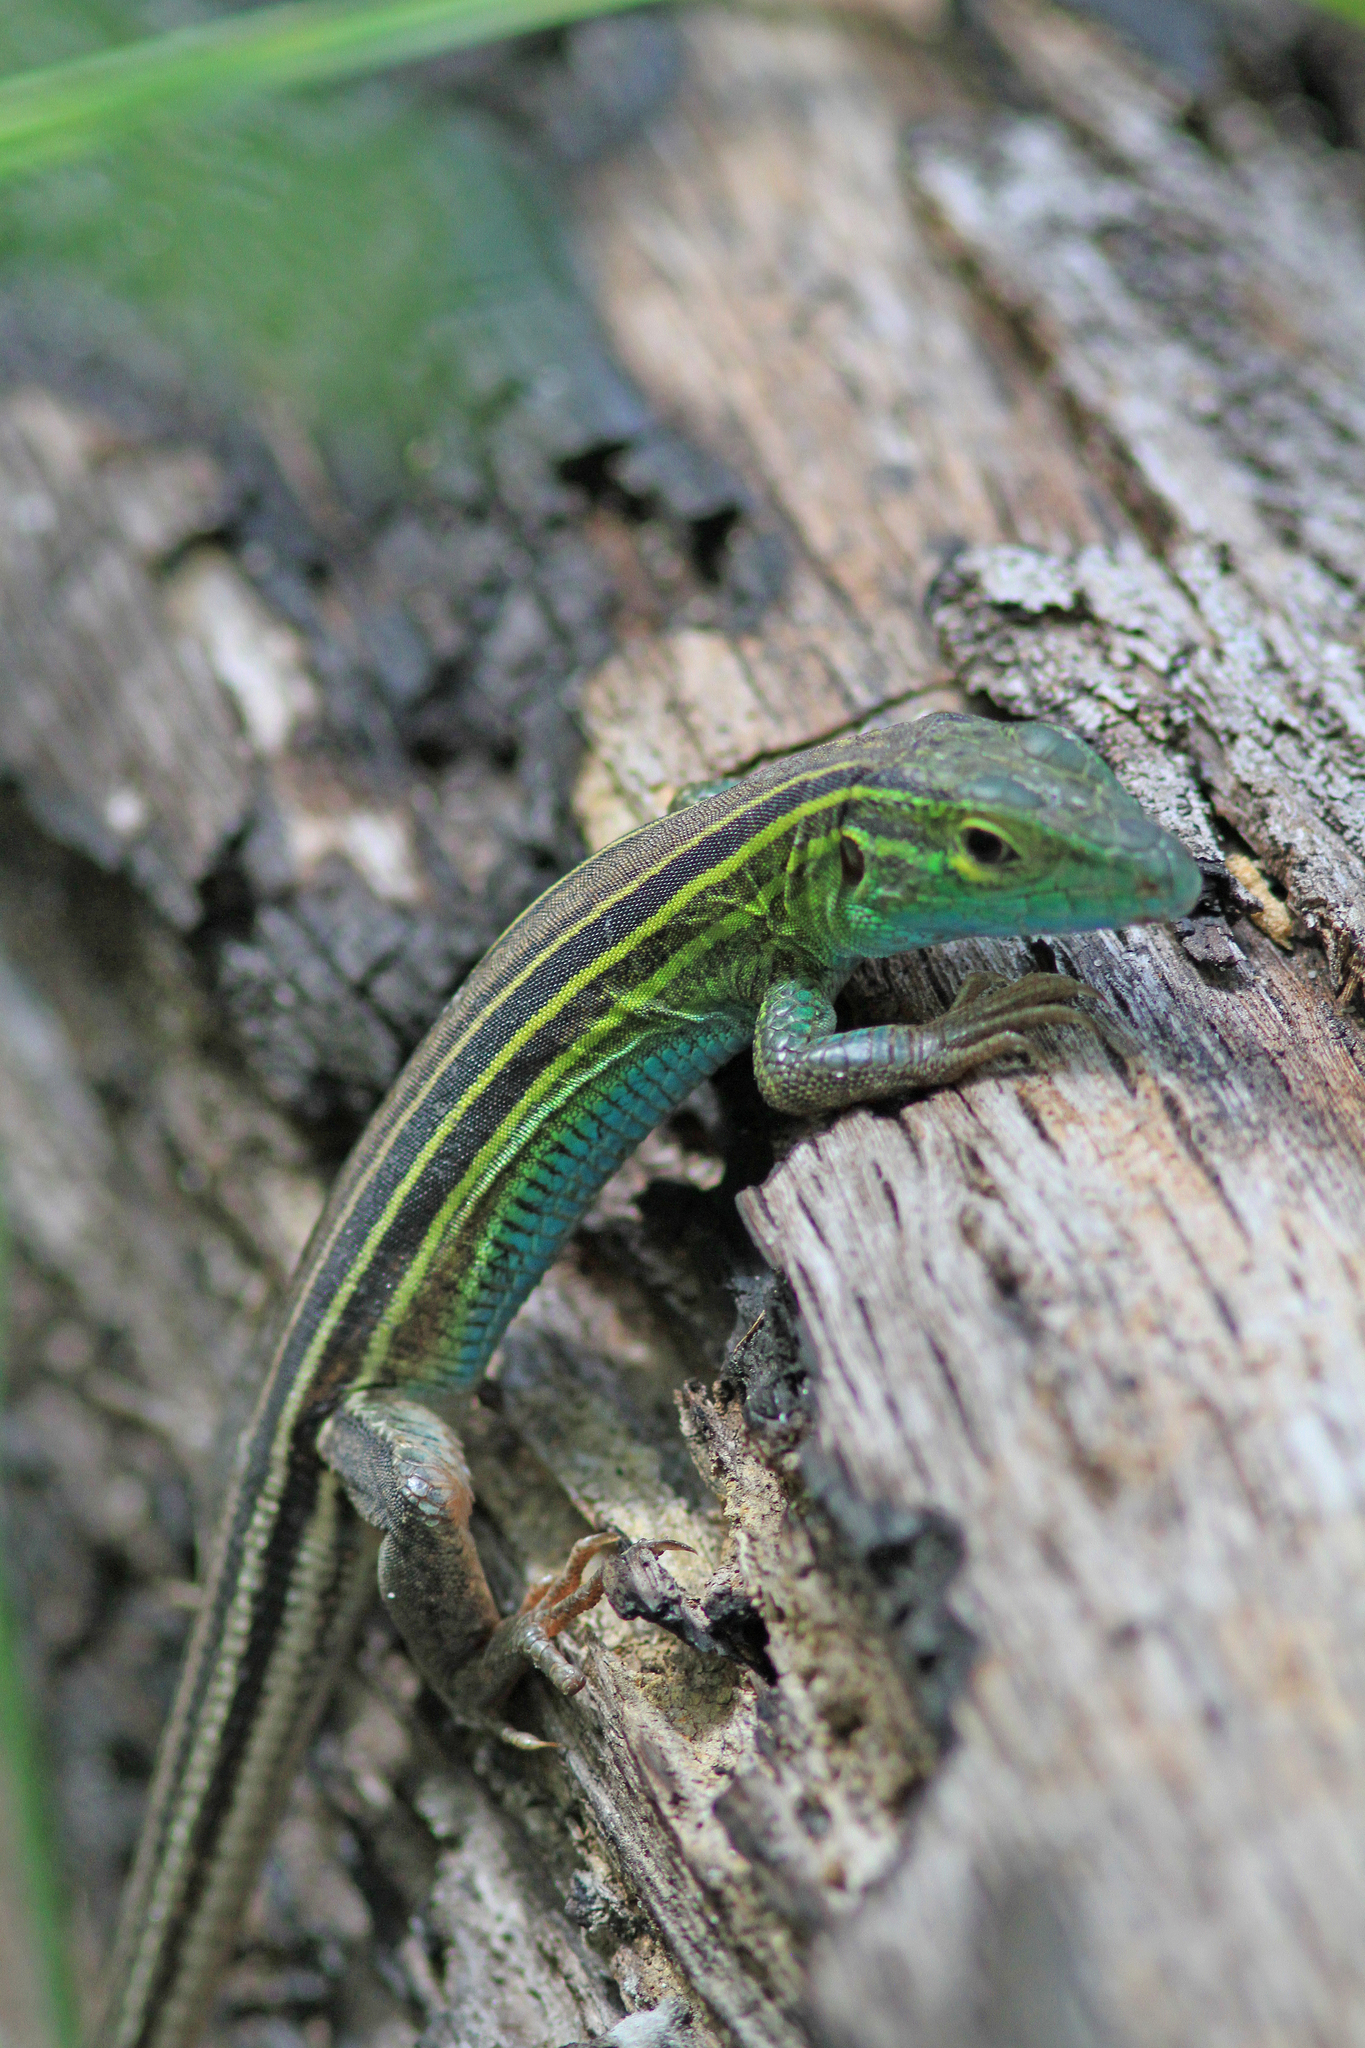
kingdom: Animalia
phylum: Chordata
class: Squamata
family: Teiidae
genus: Aspidoscelis
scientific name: Aspidoscelis sexlineatus
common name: Six-lined racerunner
